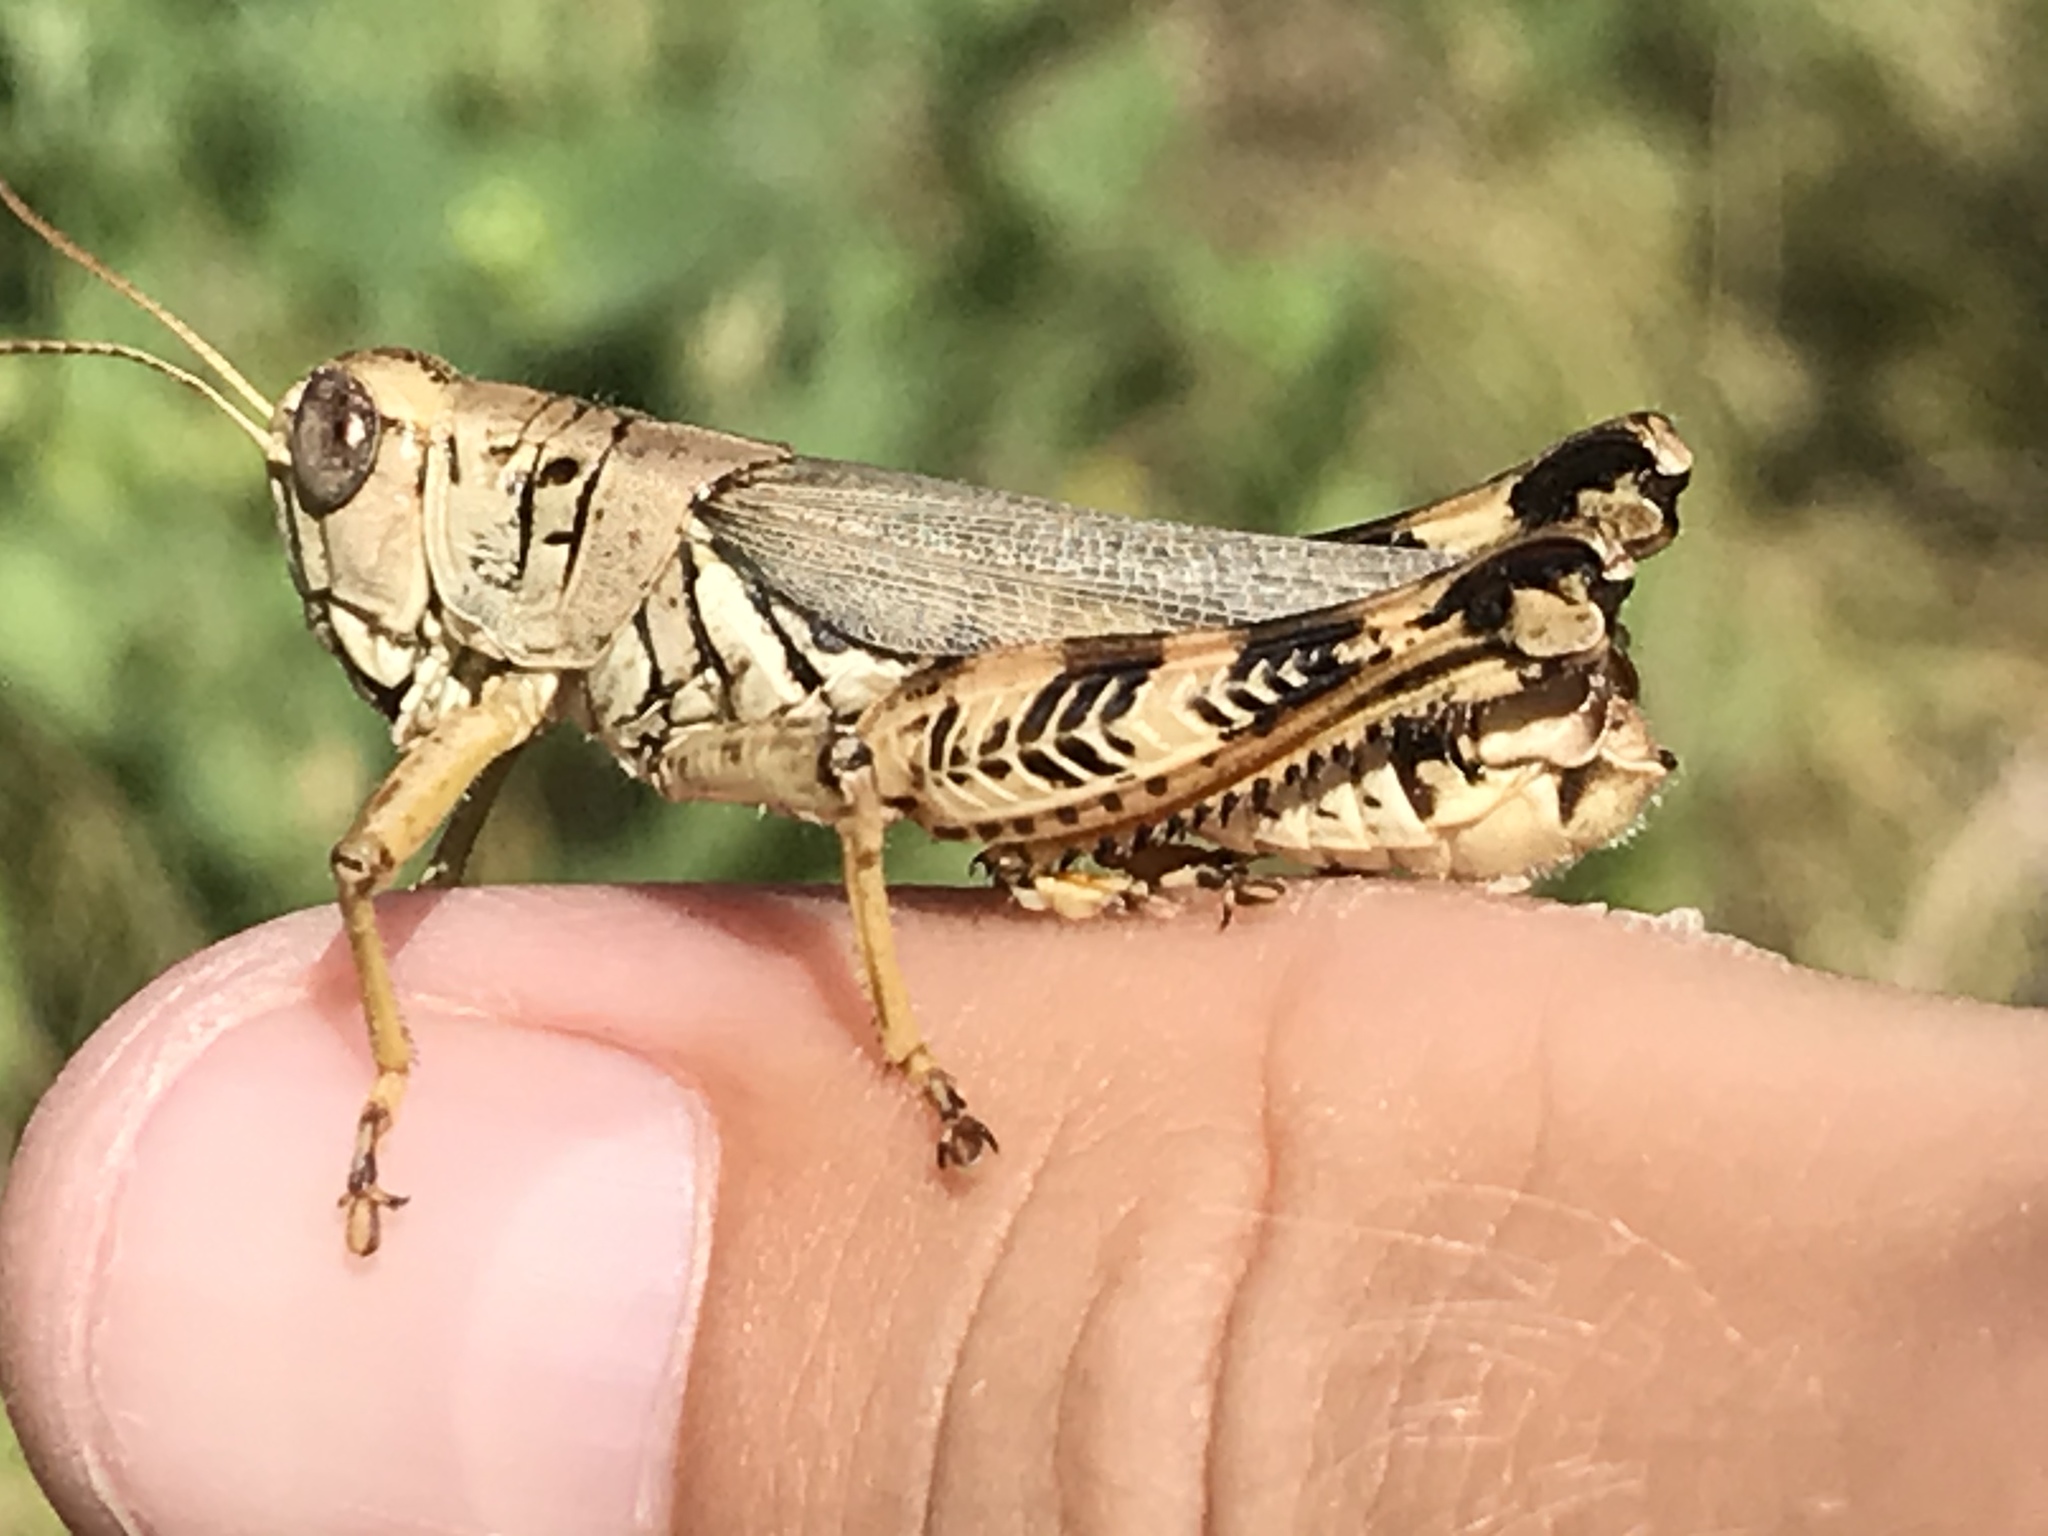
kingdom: Animalia
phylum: Arthropoda
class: Insecta
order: Orthoptera
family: Acrididae
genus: Melanoplus
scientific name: Melanoplus ponderosus
